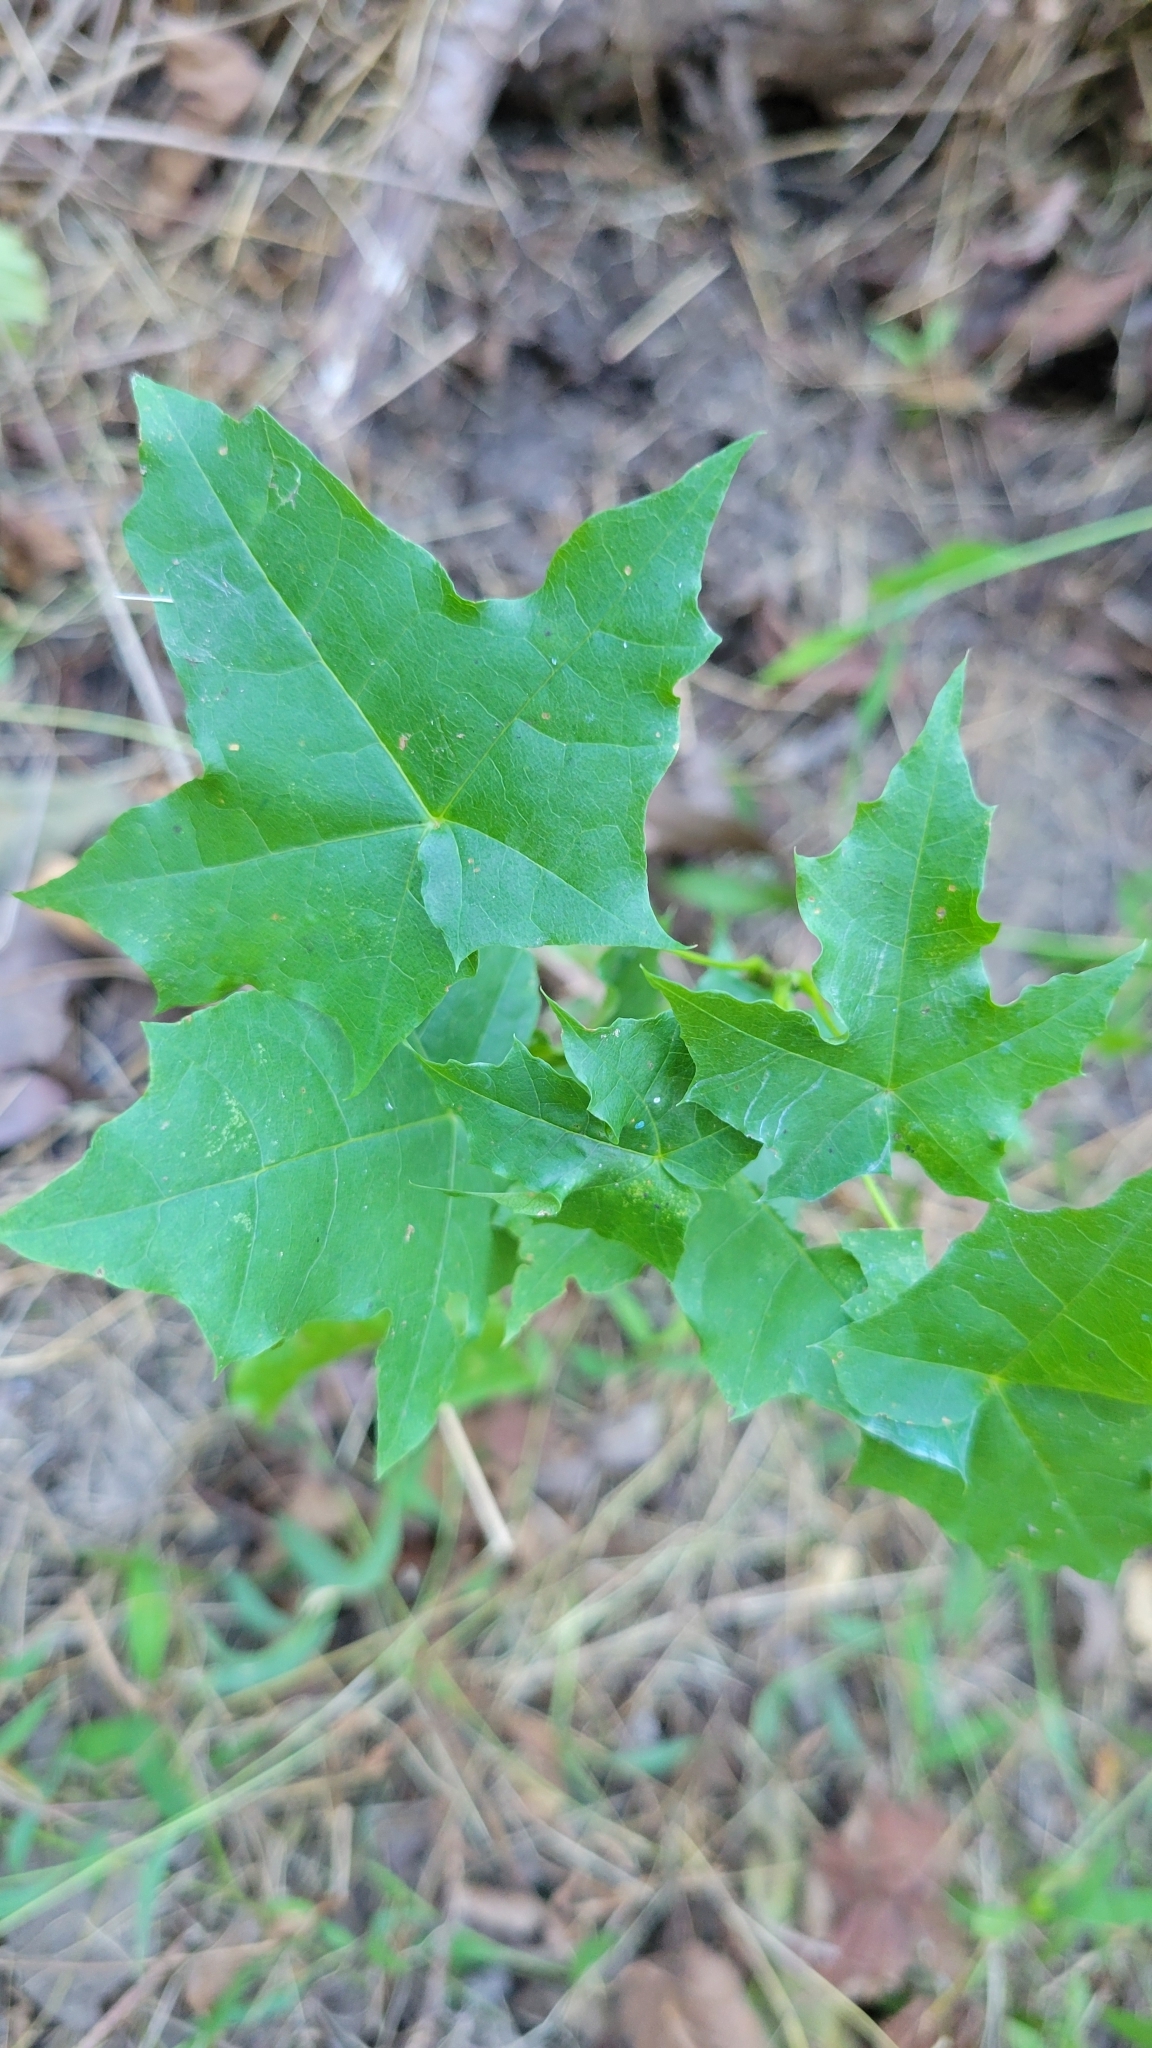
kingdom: Plantae
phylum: Tracheophyta
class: Magnoliopsida
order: Sapindales
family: Sapindaceae
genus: Acer
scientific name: Acer platanoides
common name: Norway maple
